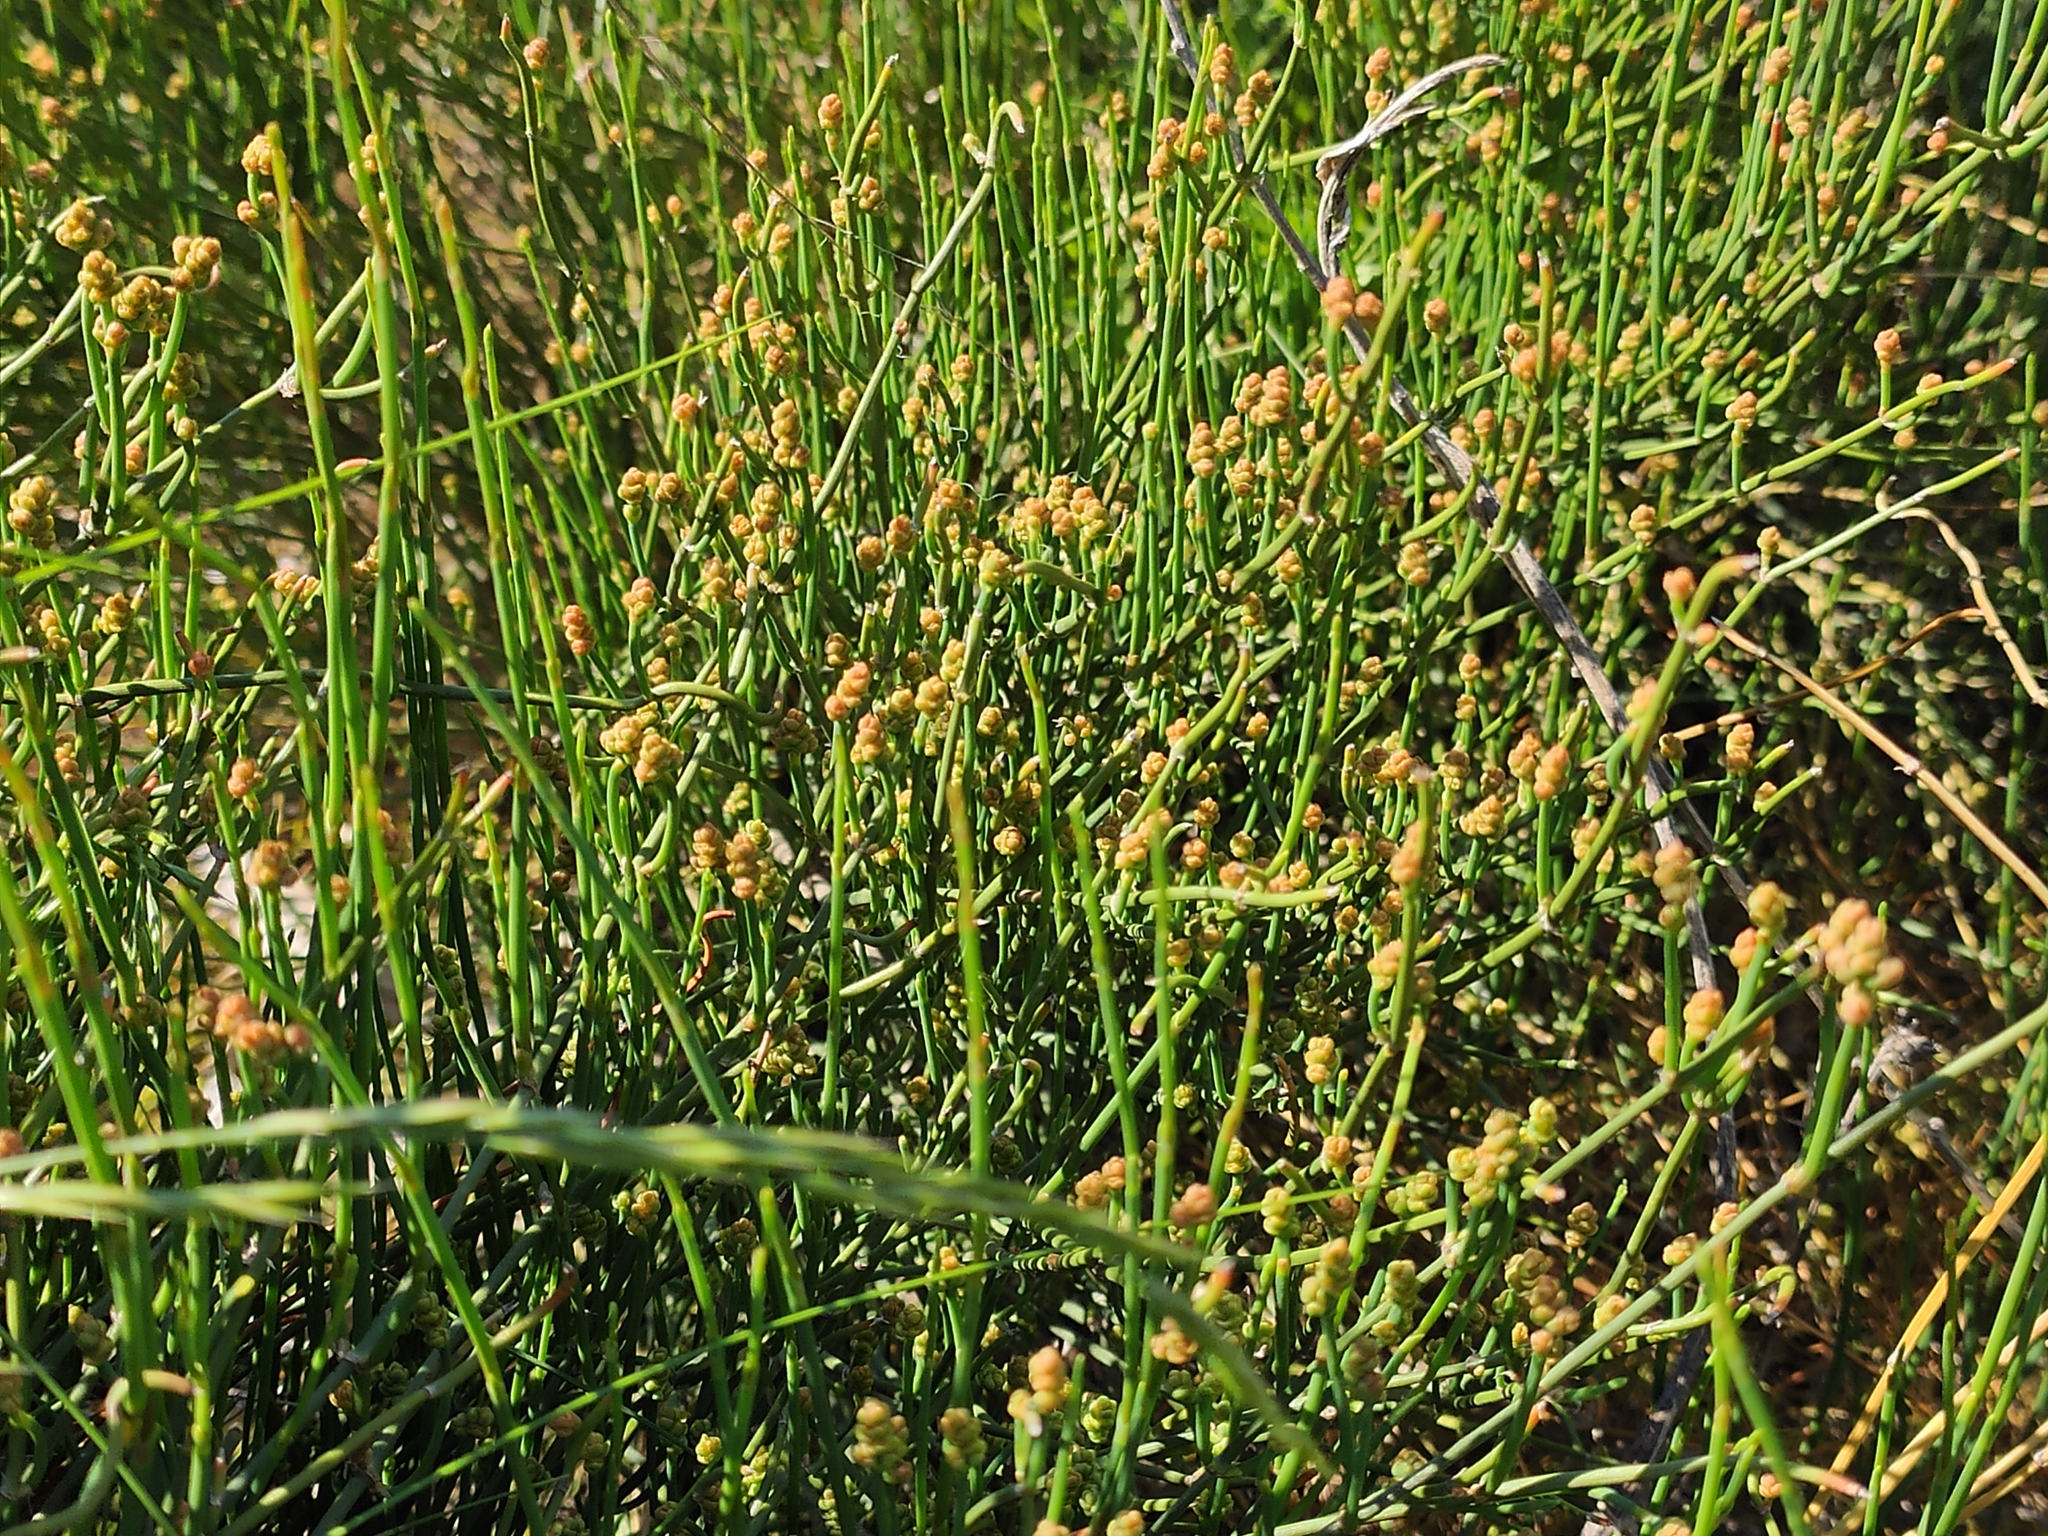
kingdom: Plantae
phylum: Tracheophyta
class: Gnetopsida
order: Ephedrales
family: Ephedraceae
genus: Ephedra
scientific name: Ephedra distachya
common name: Sea grape
